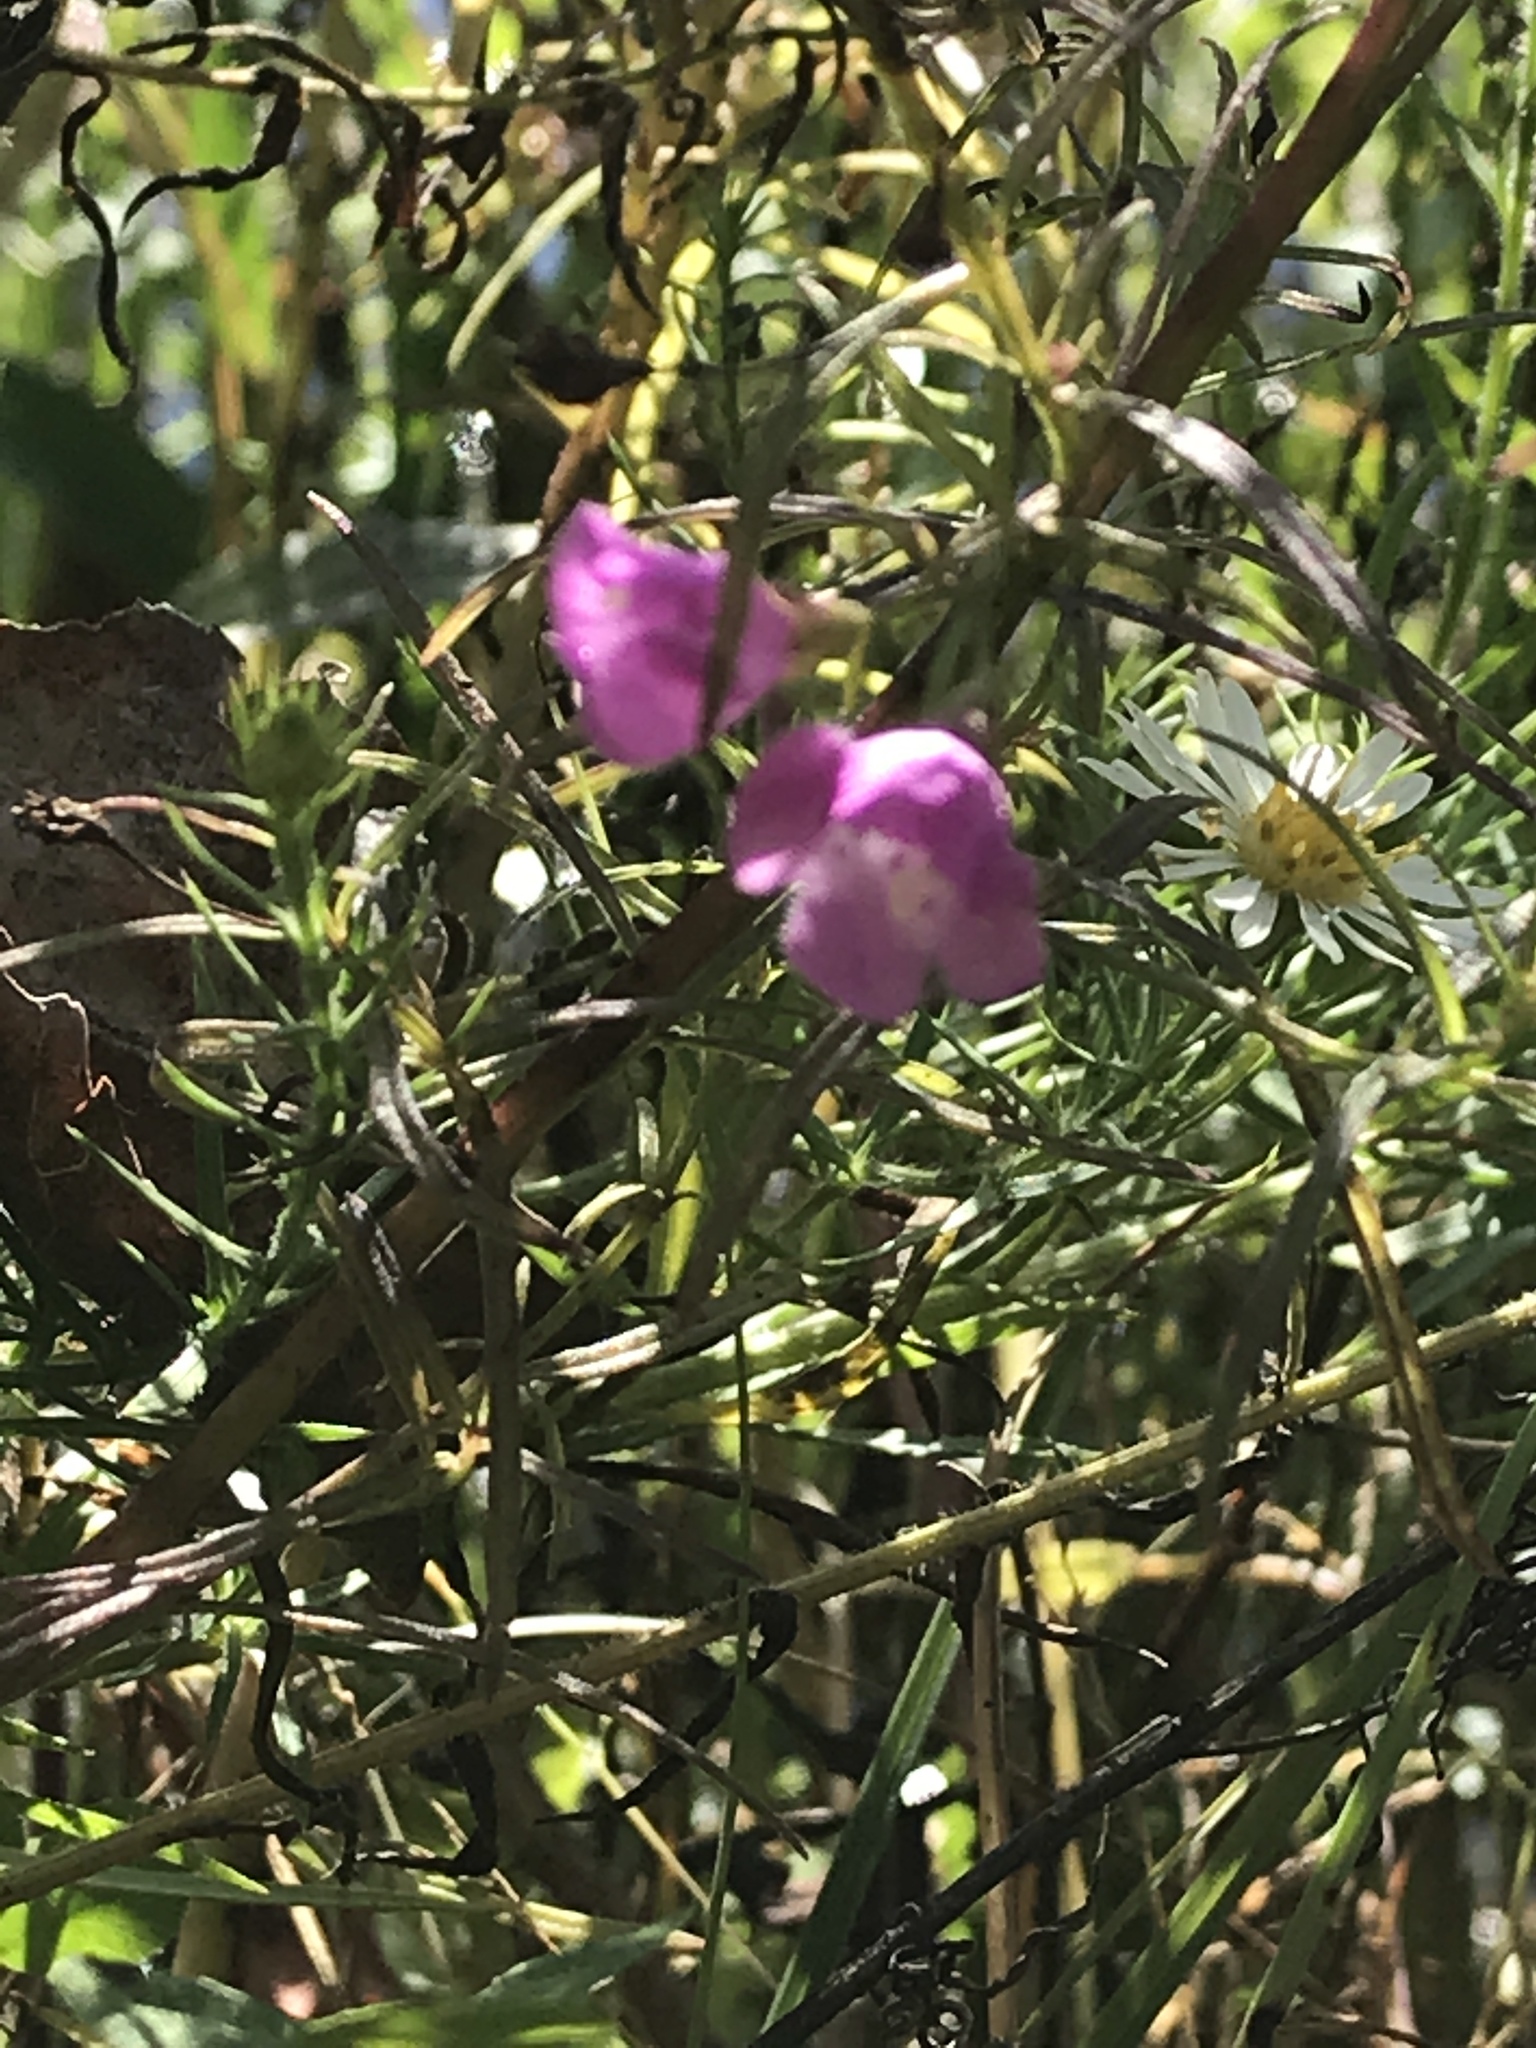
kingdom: Plantae
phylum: Tracheophyta
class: Magnoliopsida
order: Lamiales
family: Orobanchaceae
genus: Agalinis
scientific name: Agalinis tenuifolia
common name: Slender agalinis
